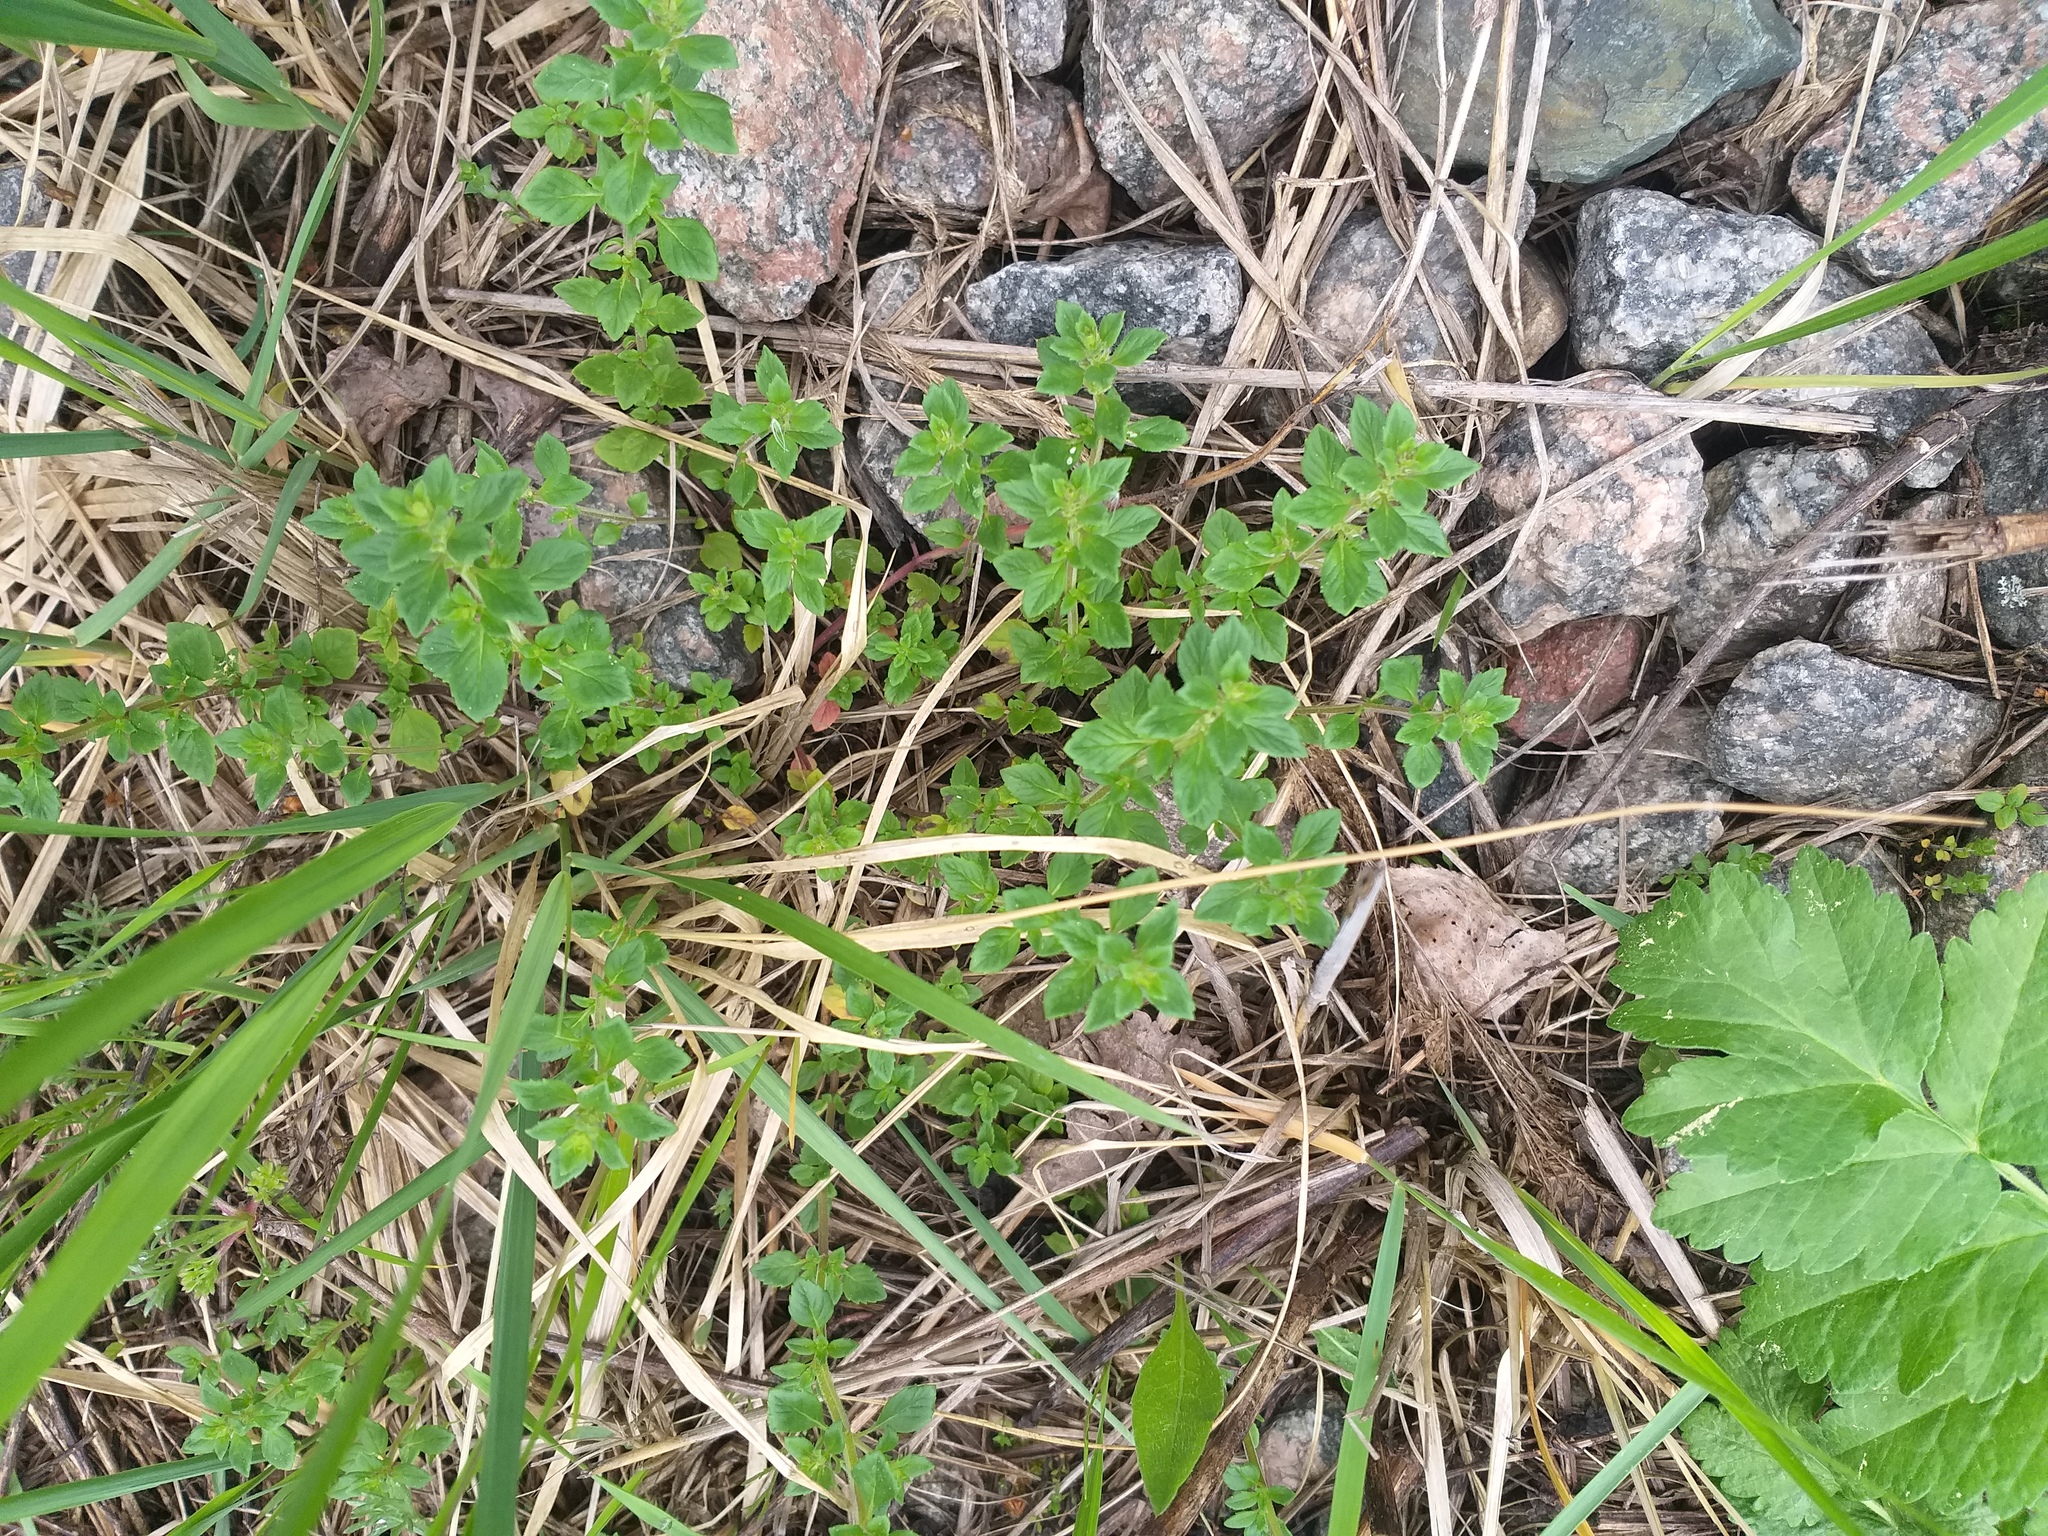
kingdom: Plantae
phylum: Tracheophyta
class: Magnoliopsida
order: Lamiales
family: Lamiaceae
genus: Clinopodium
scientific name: Clinopodium acinos
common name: Basil thyme
